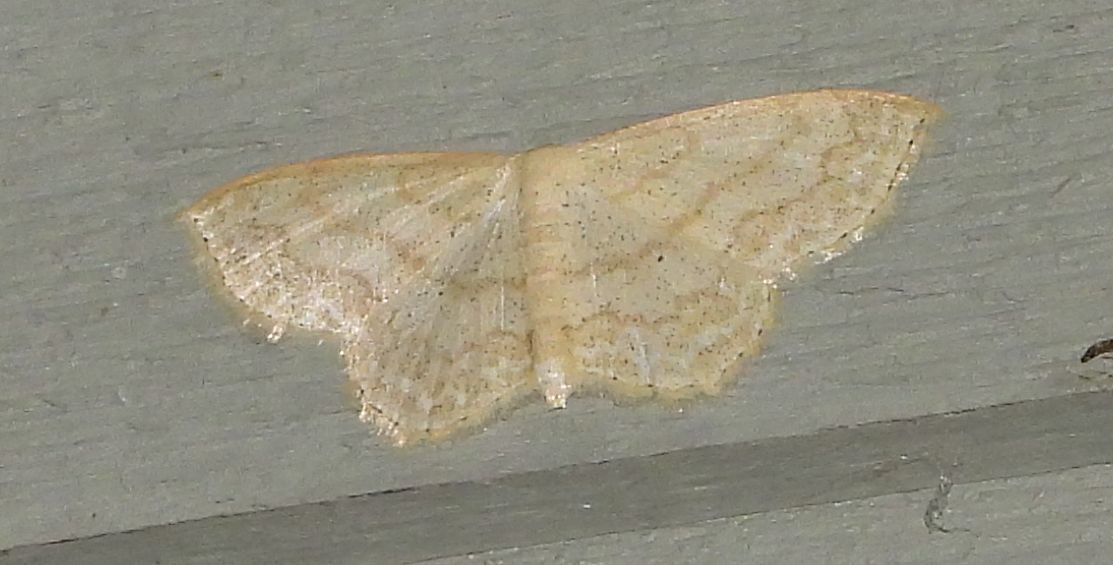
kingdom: Animalia
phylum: Arthropoda
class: Insecta
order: Lepidoptera
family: Geometridae
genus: Scopula
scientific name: Scopula limboundata
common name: Large lace border
